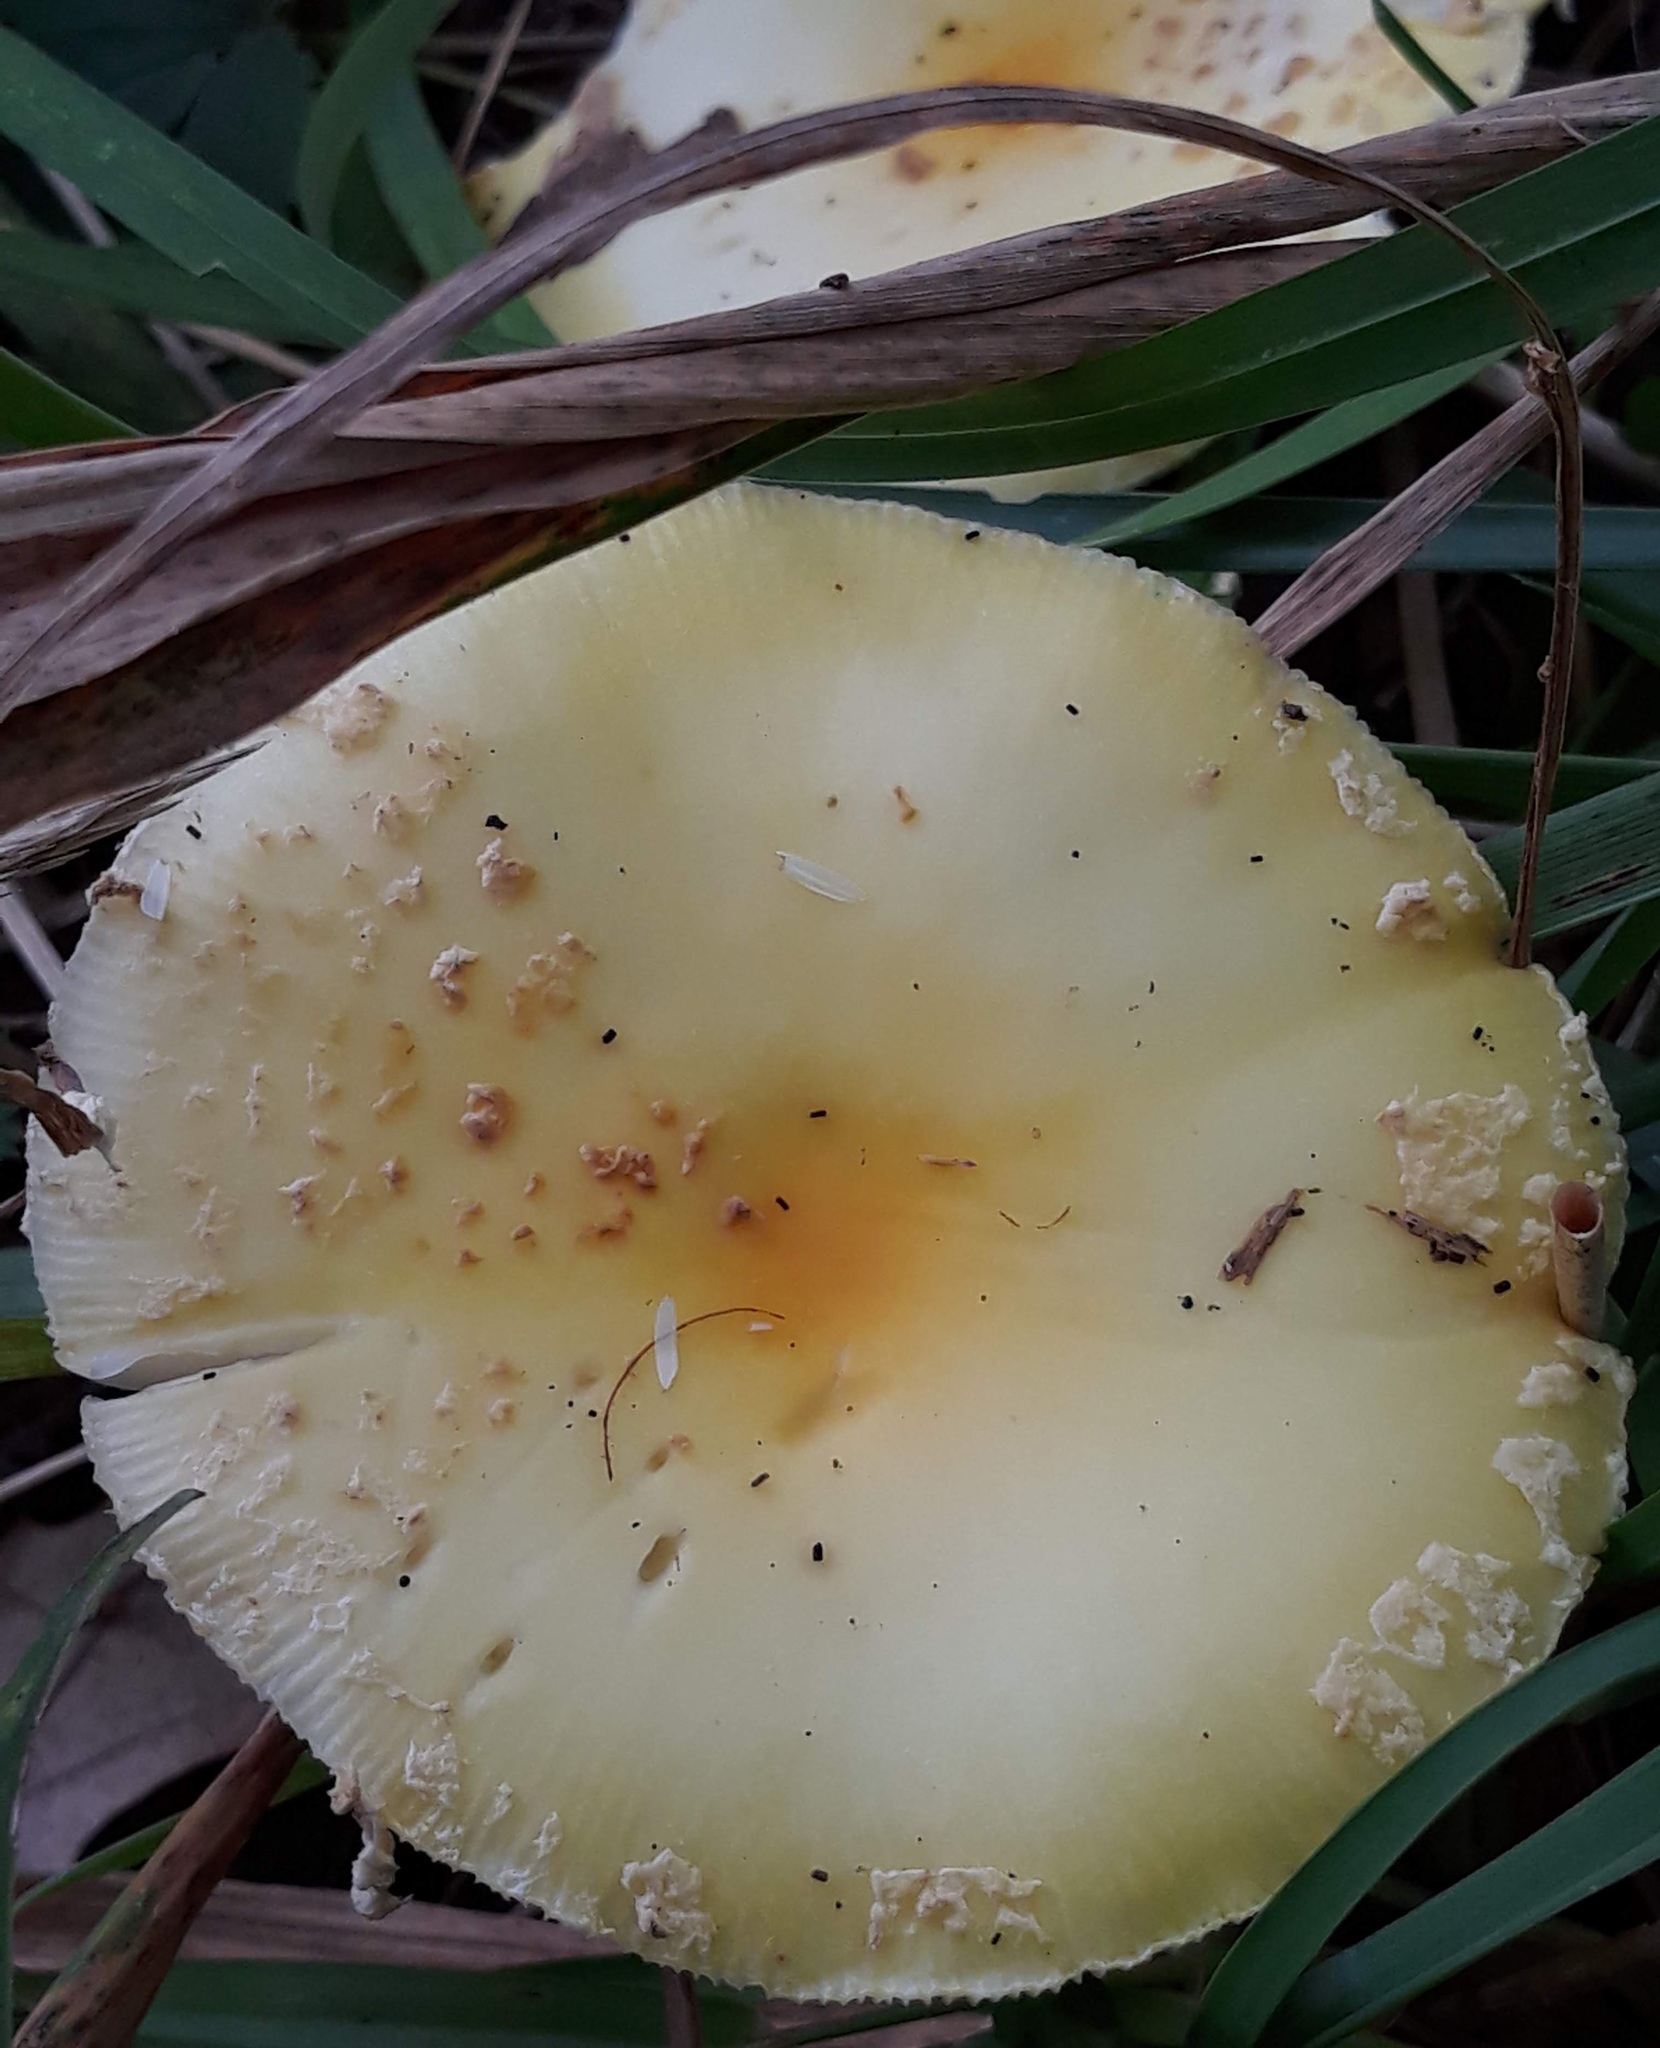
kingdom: Fungi
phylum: Basidiomycota
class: Agaricomycetes
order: Agaricales
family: Amanitaceae
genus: Amanita
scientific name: Amanita muscaria
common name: Fly agaric
